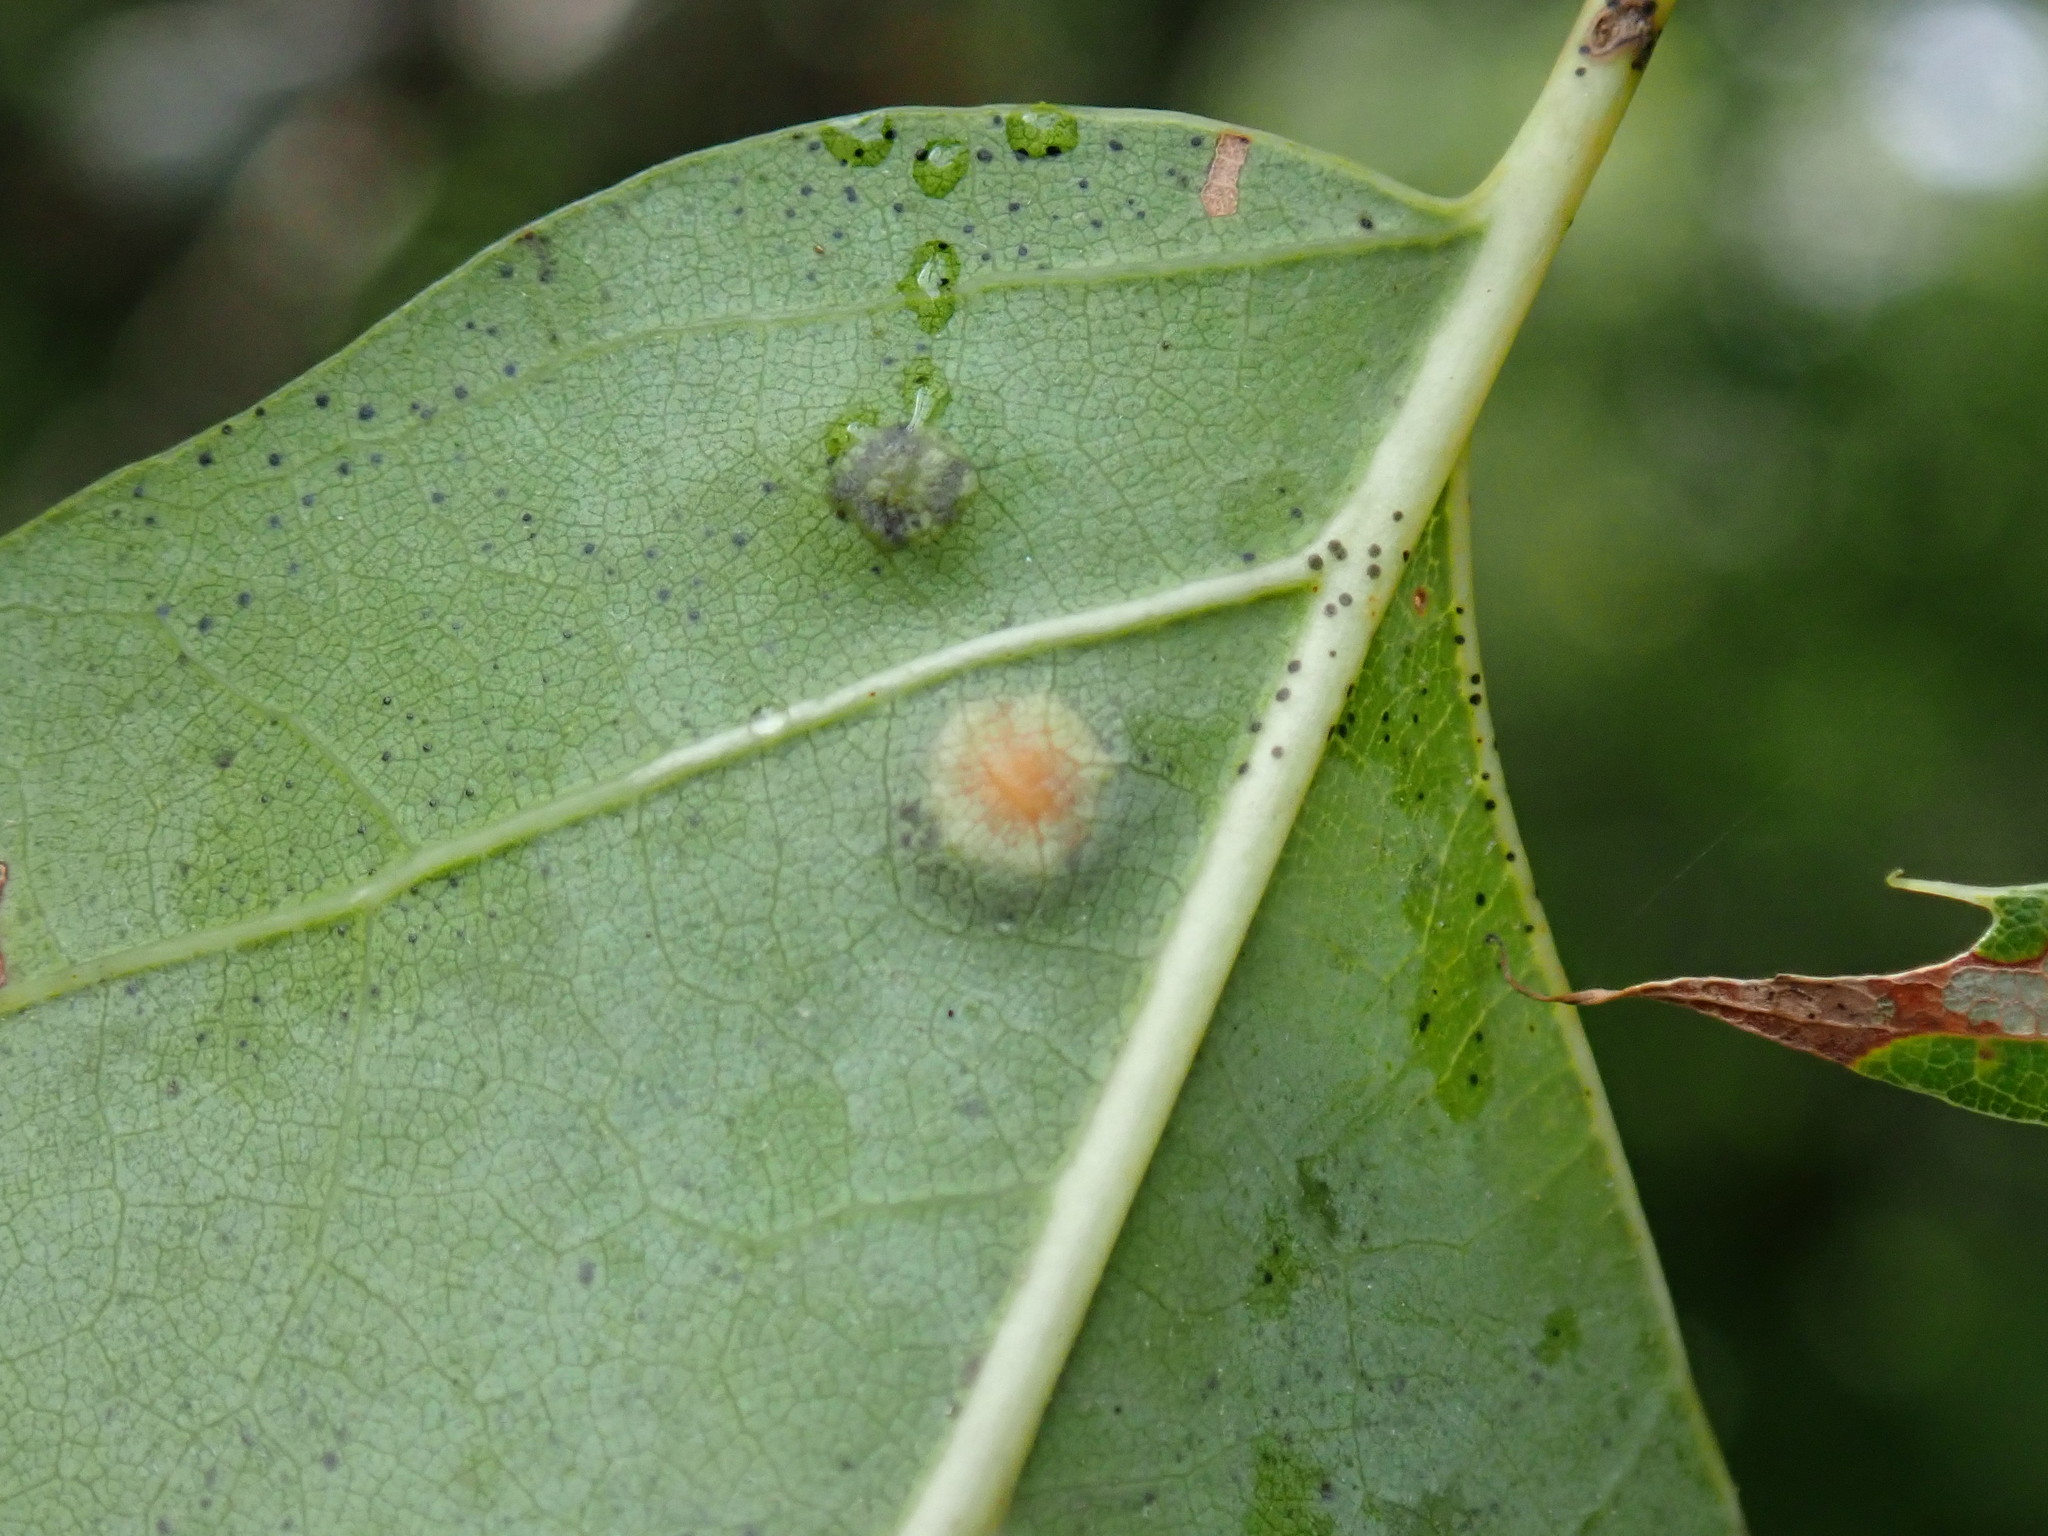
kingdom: Animalia
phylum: Arthropoda
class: Insecta
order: Diptera
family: Cecidomyiidae
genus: Polystepha
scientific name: Polystepha pilulae
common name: Oak leaf gall midge
